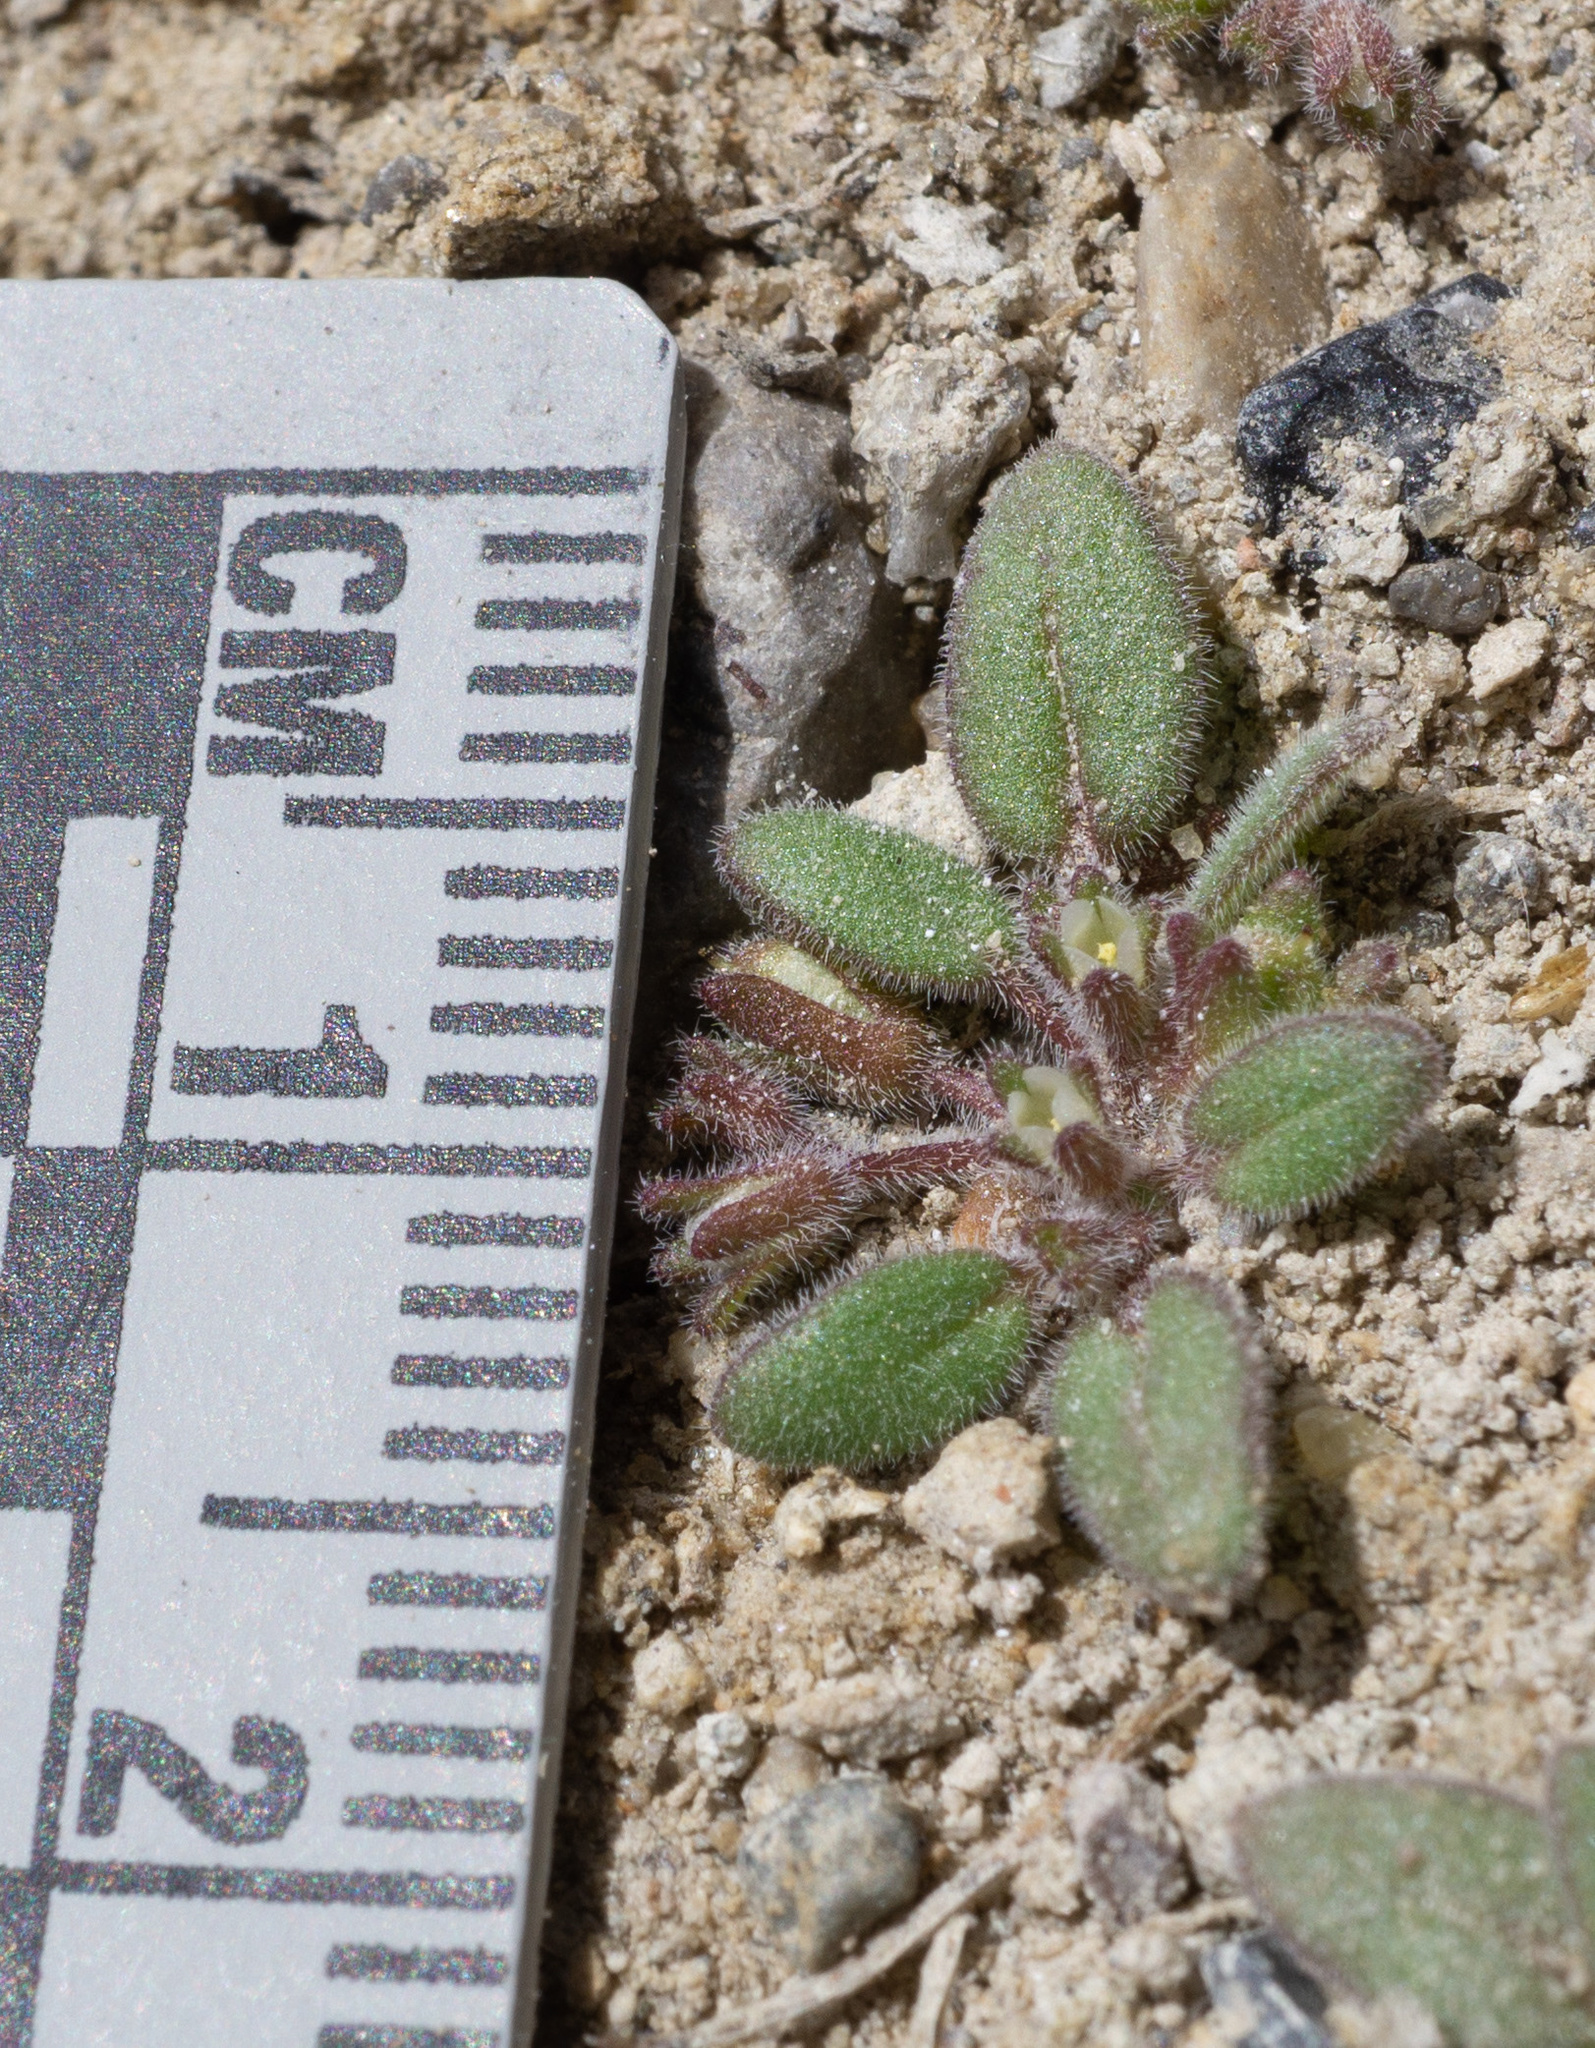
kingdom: Plantae
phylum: Tracheophyta
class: Magnoliopsida
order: Boraginales
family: Hydrophyllaceae
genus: Phacelia
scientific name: Phacelia tetramera
